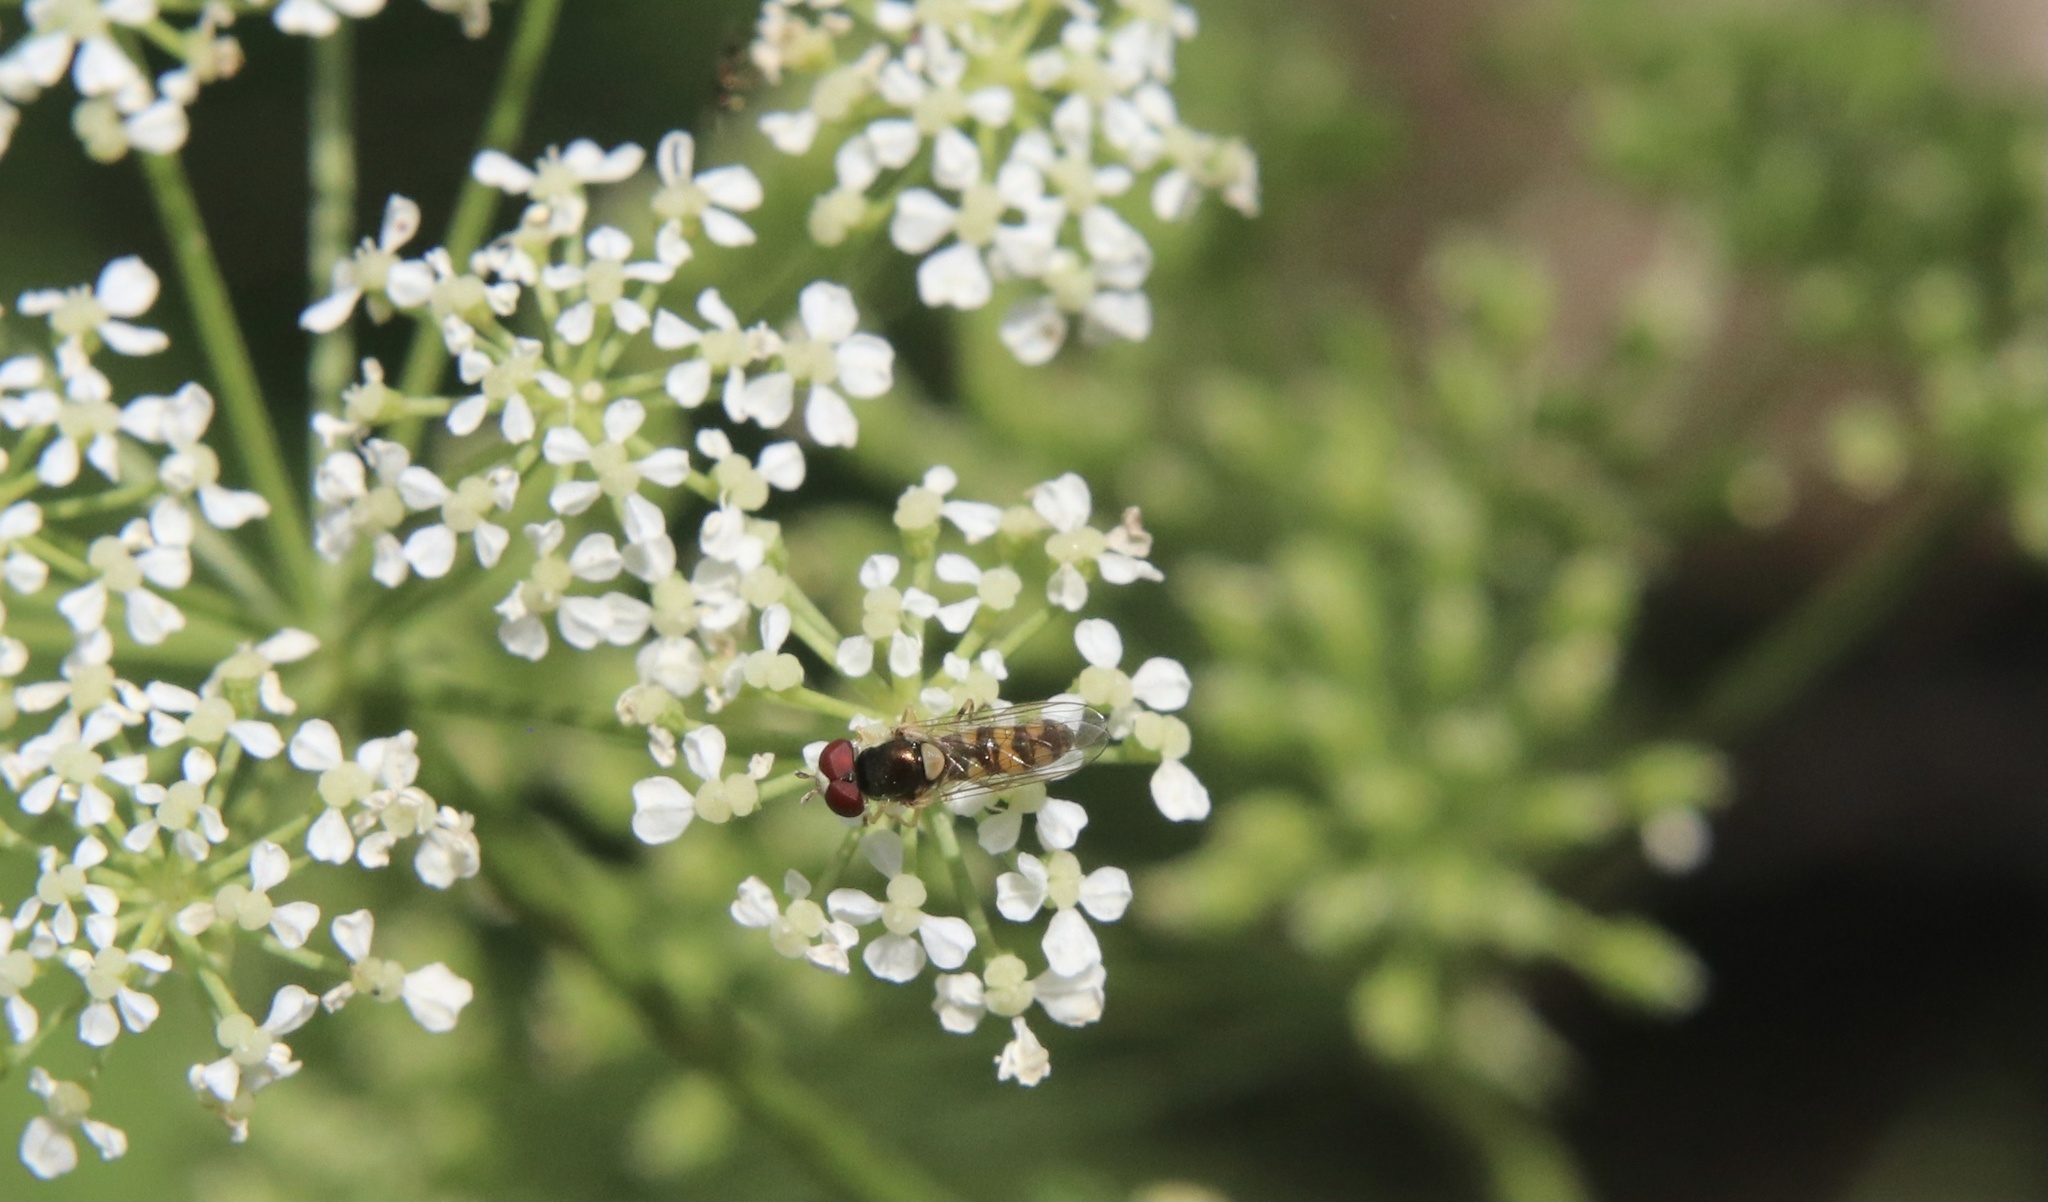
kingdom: Animalia
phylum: Arthropoda
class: Insecta
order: Diptera
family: Syrphidae
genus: Allograpta
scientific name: Allograpta pulchra
